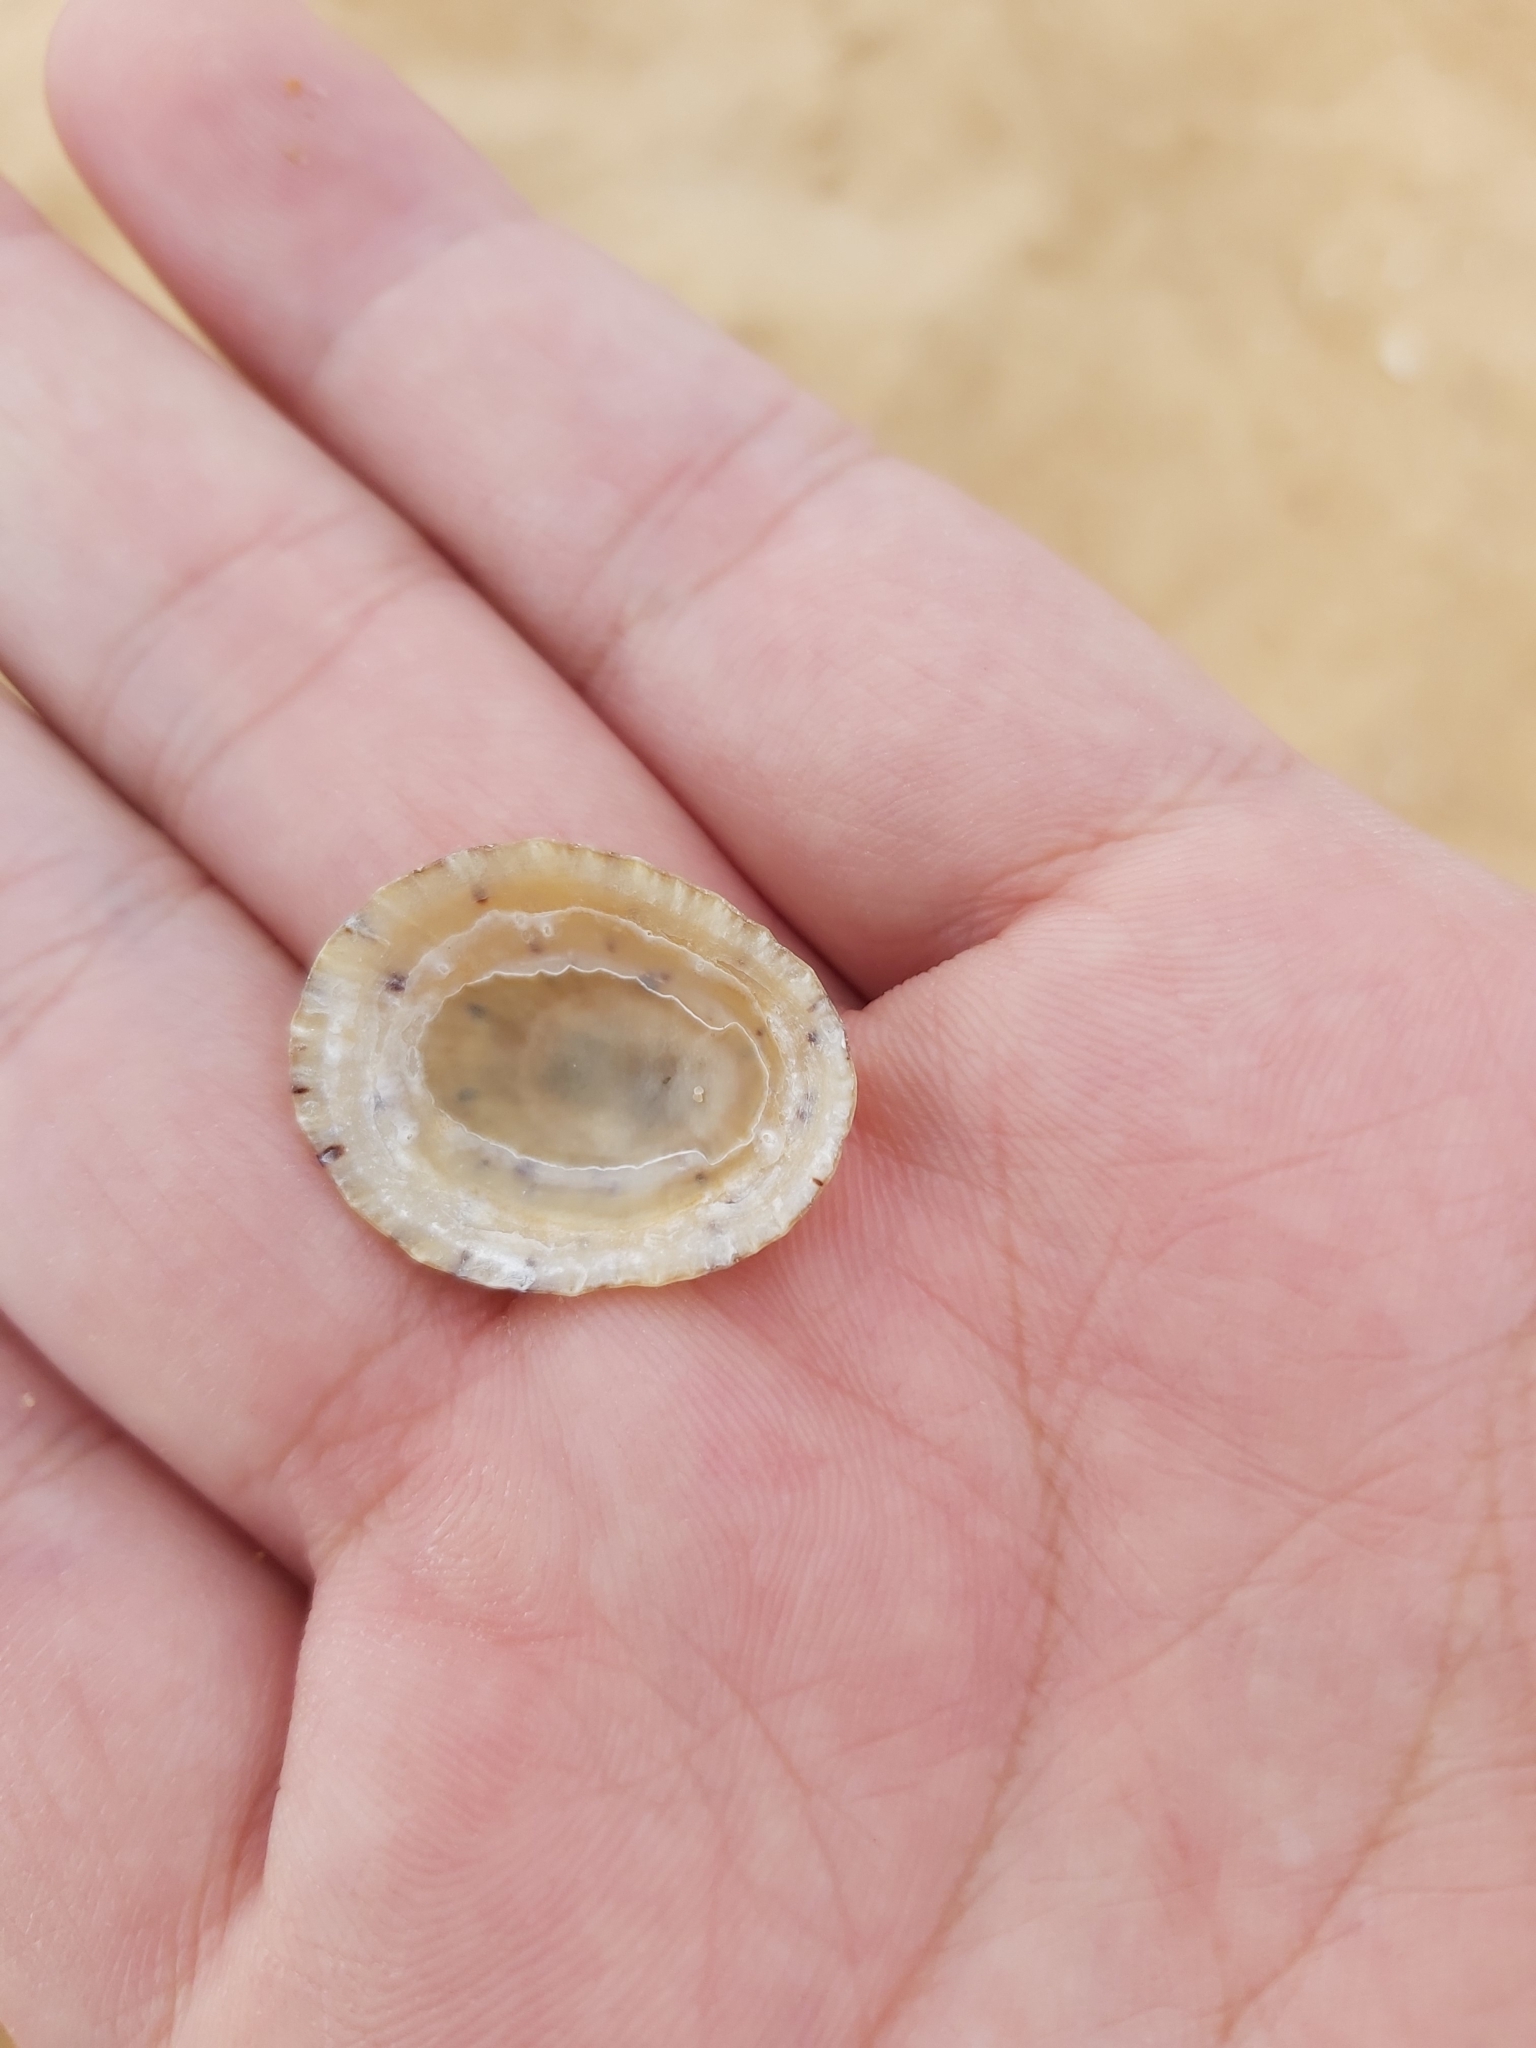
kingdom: Animalia
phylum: Mollusca
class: Gastropoda
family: Nacellidae
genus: Cellana
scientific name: Cellana tramoserica
